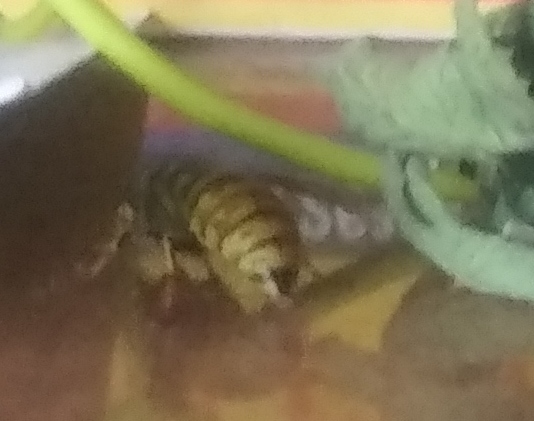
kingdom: Animalia
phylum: Arthropoda
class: Insecta
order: Hymenoptera
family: Vespidae
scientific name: Vespidae
